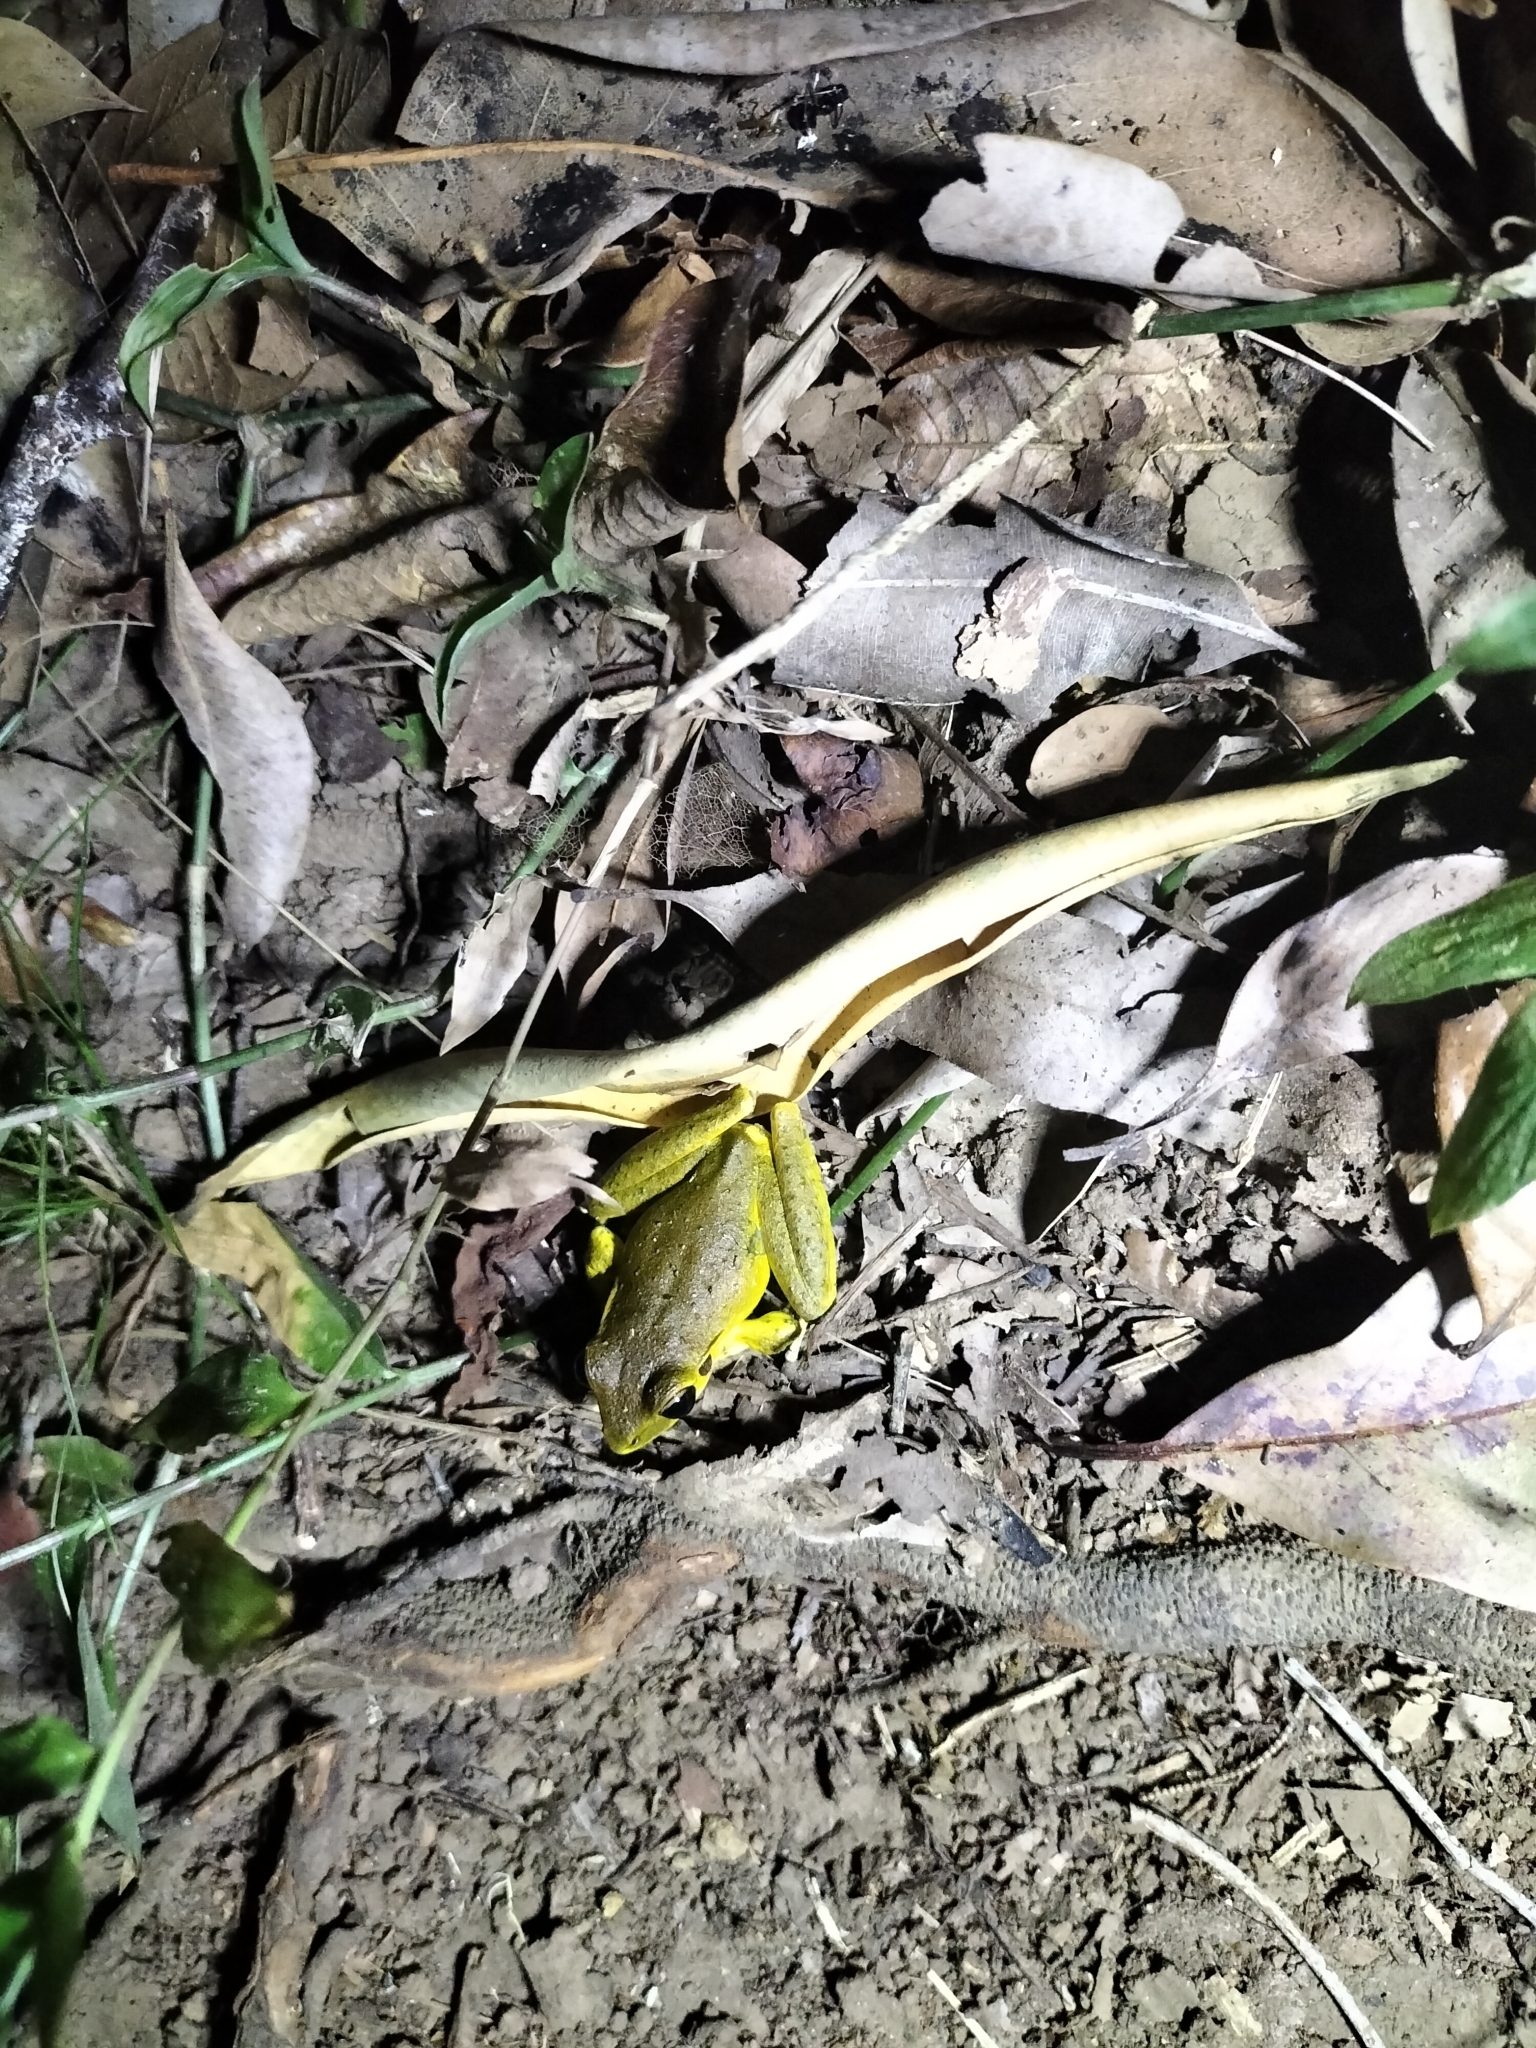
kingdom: Animalia
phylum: Chordata
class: Amphibia
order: Anura
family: Hylidae
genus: Ranoidea
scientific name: Ranoidea
